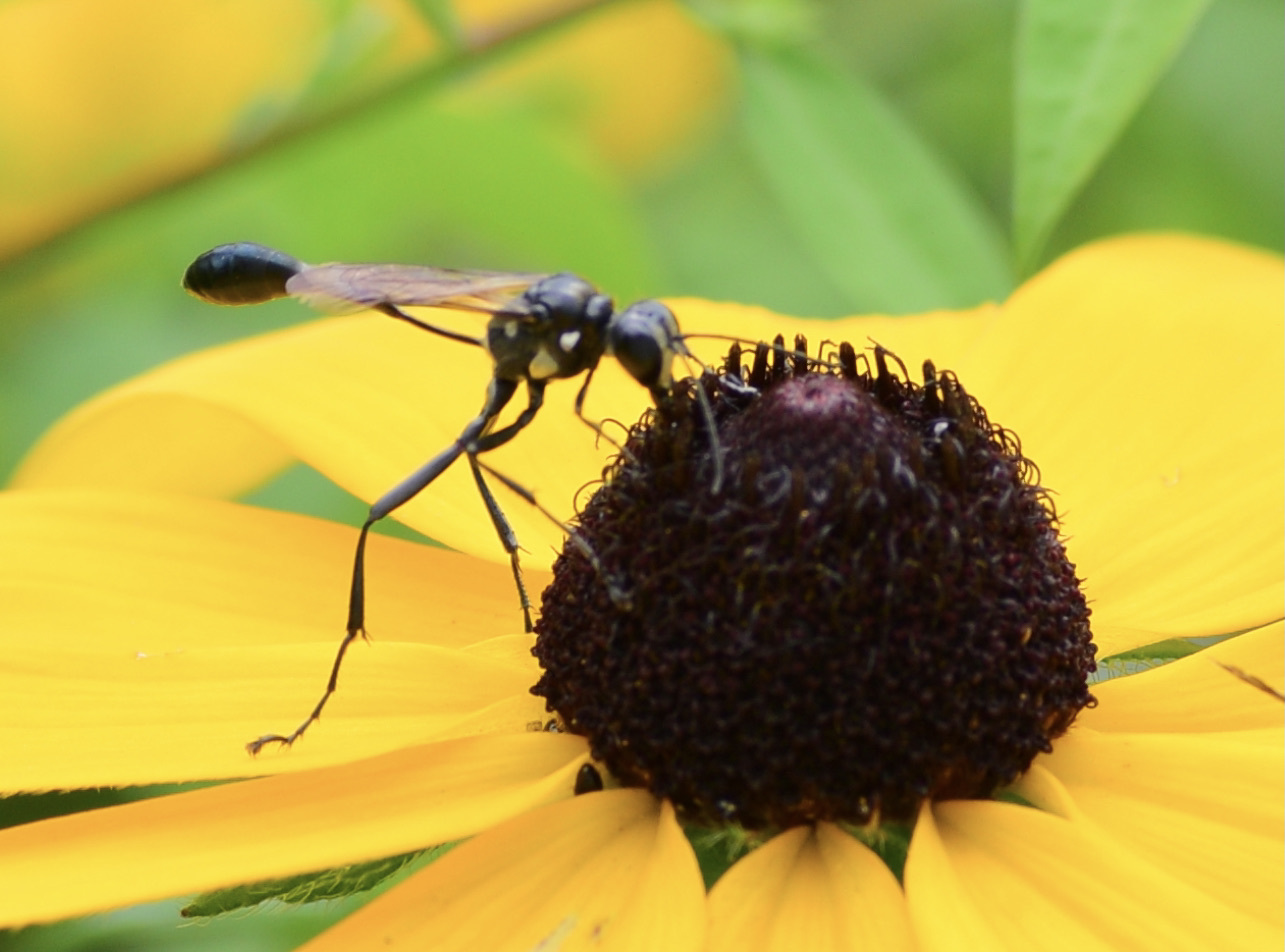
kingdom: Animalia
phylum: Arthropoda
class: Insecta
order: Hymenoptera
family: Sphecidae
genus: Eremnophila
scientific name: Eremnophila aureonotata
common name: Gold-marked thread-waisted wasp
